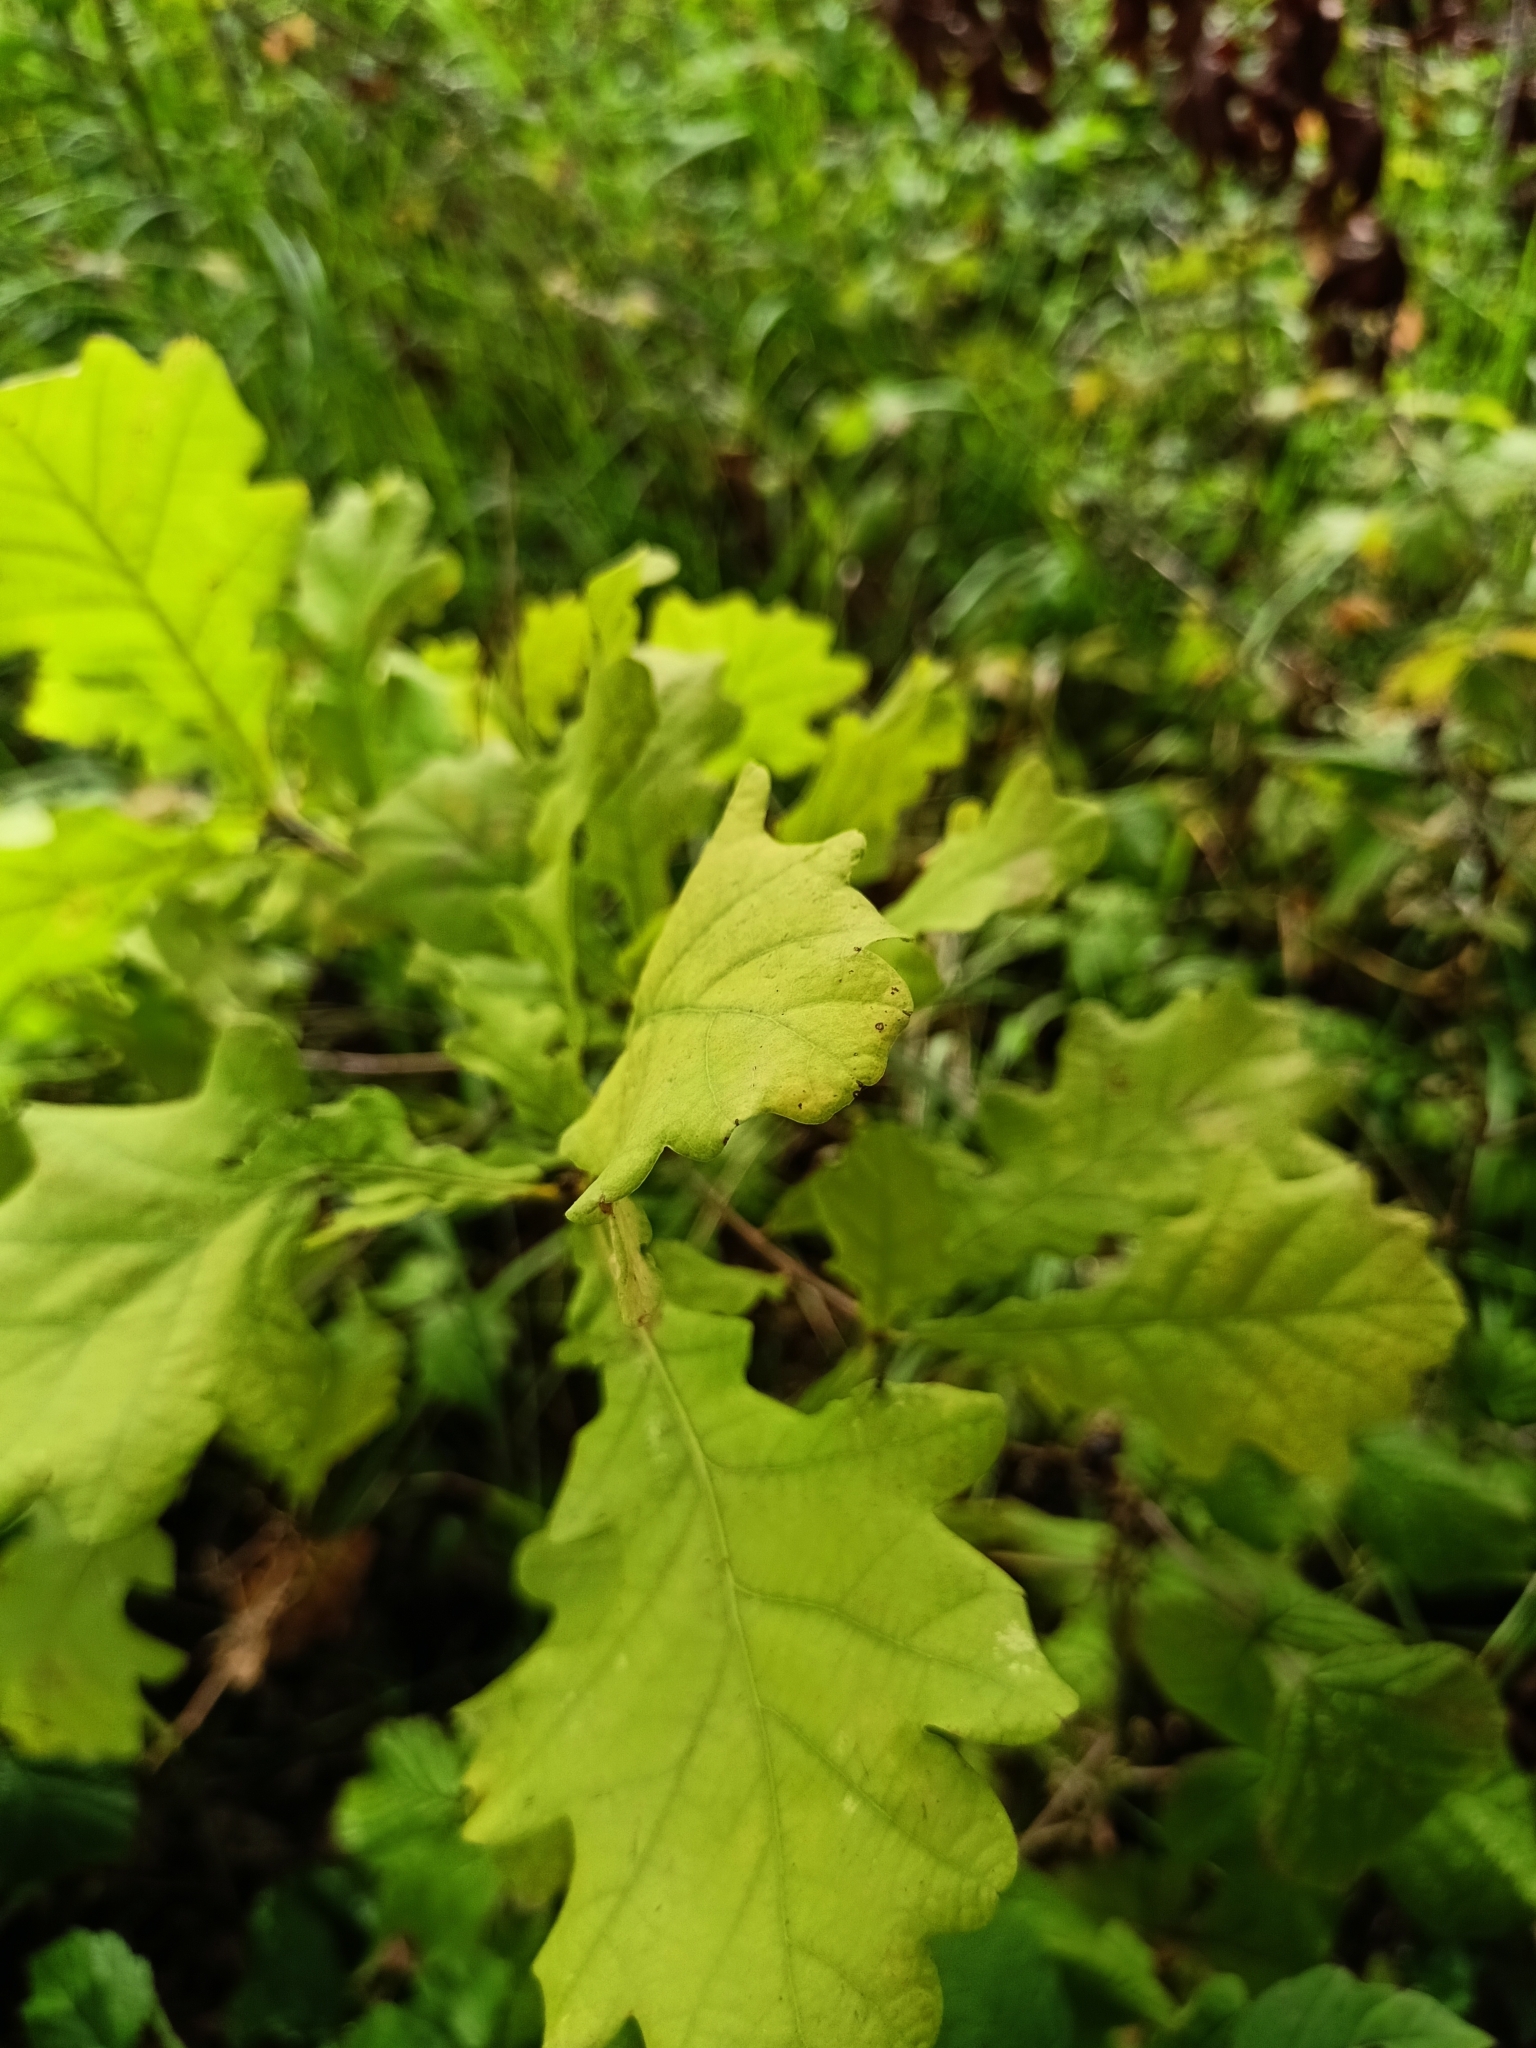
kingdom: Plantae
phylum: Tracheophyta
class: Magnoliopsida
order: Fagales
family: Fagaceae
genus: Quercus
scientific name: Quercus robur
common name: Pedunculate oak
